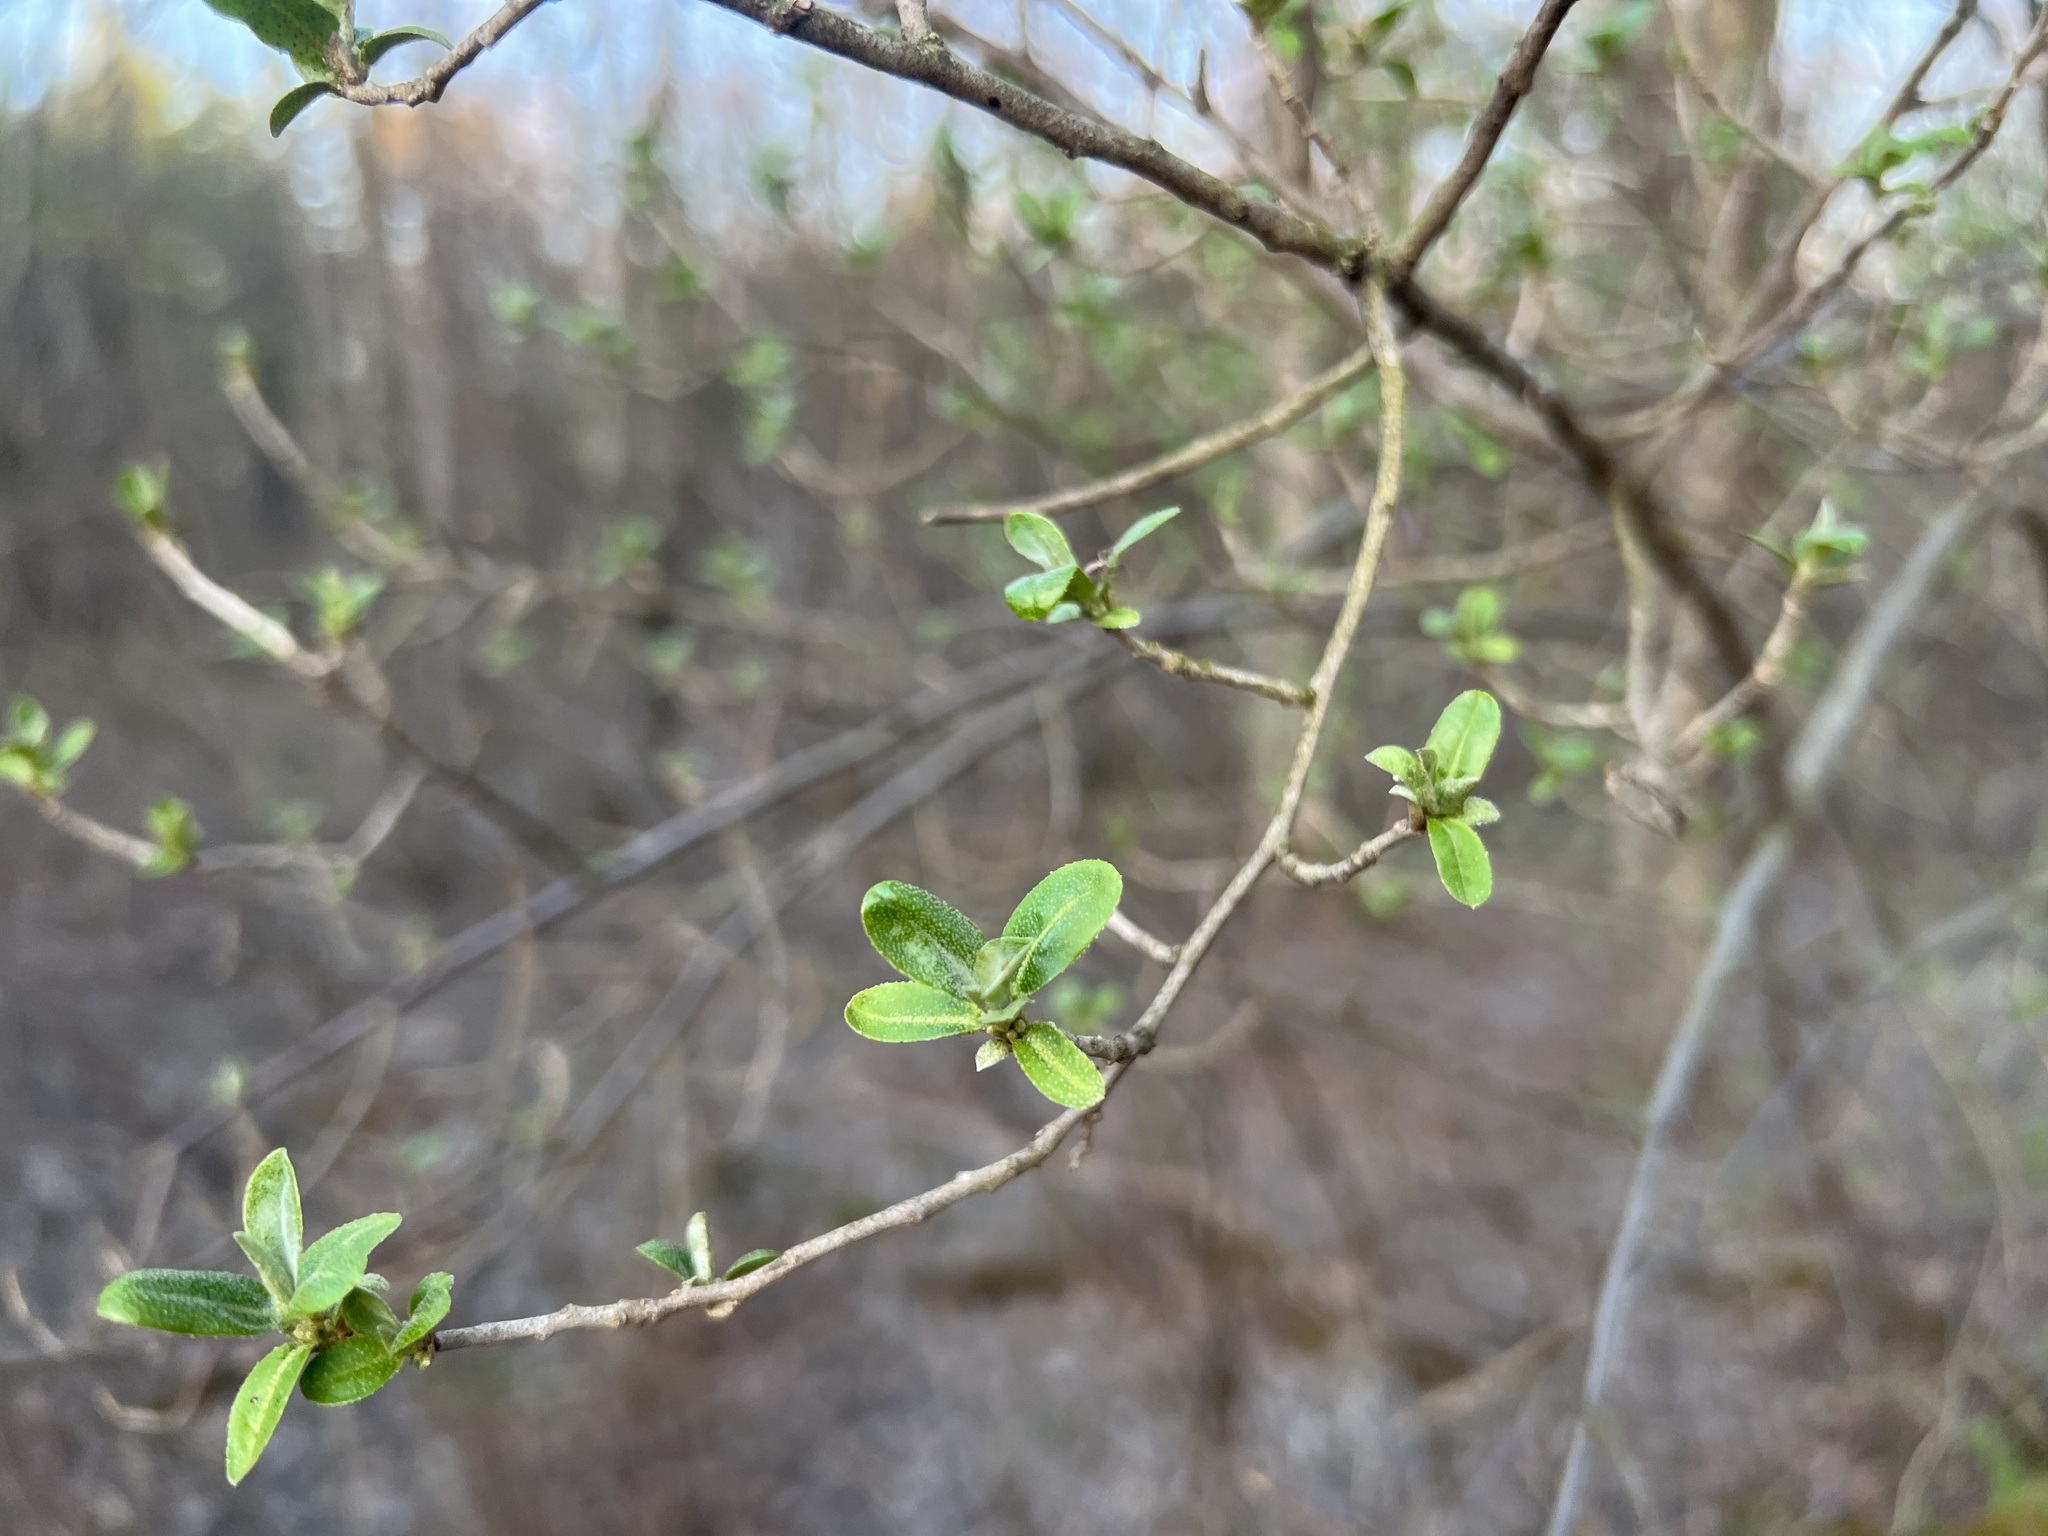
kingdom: Plantae
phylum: Tracheophyta
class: Magnoliopsida
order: Rosales
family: Elaeagnaceae
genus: Elaeagnus
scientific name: Elaeagnus umbellata
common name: Autumn olive
